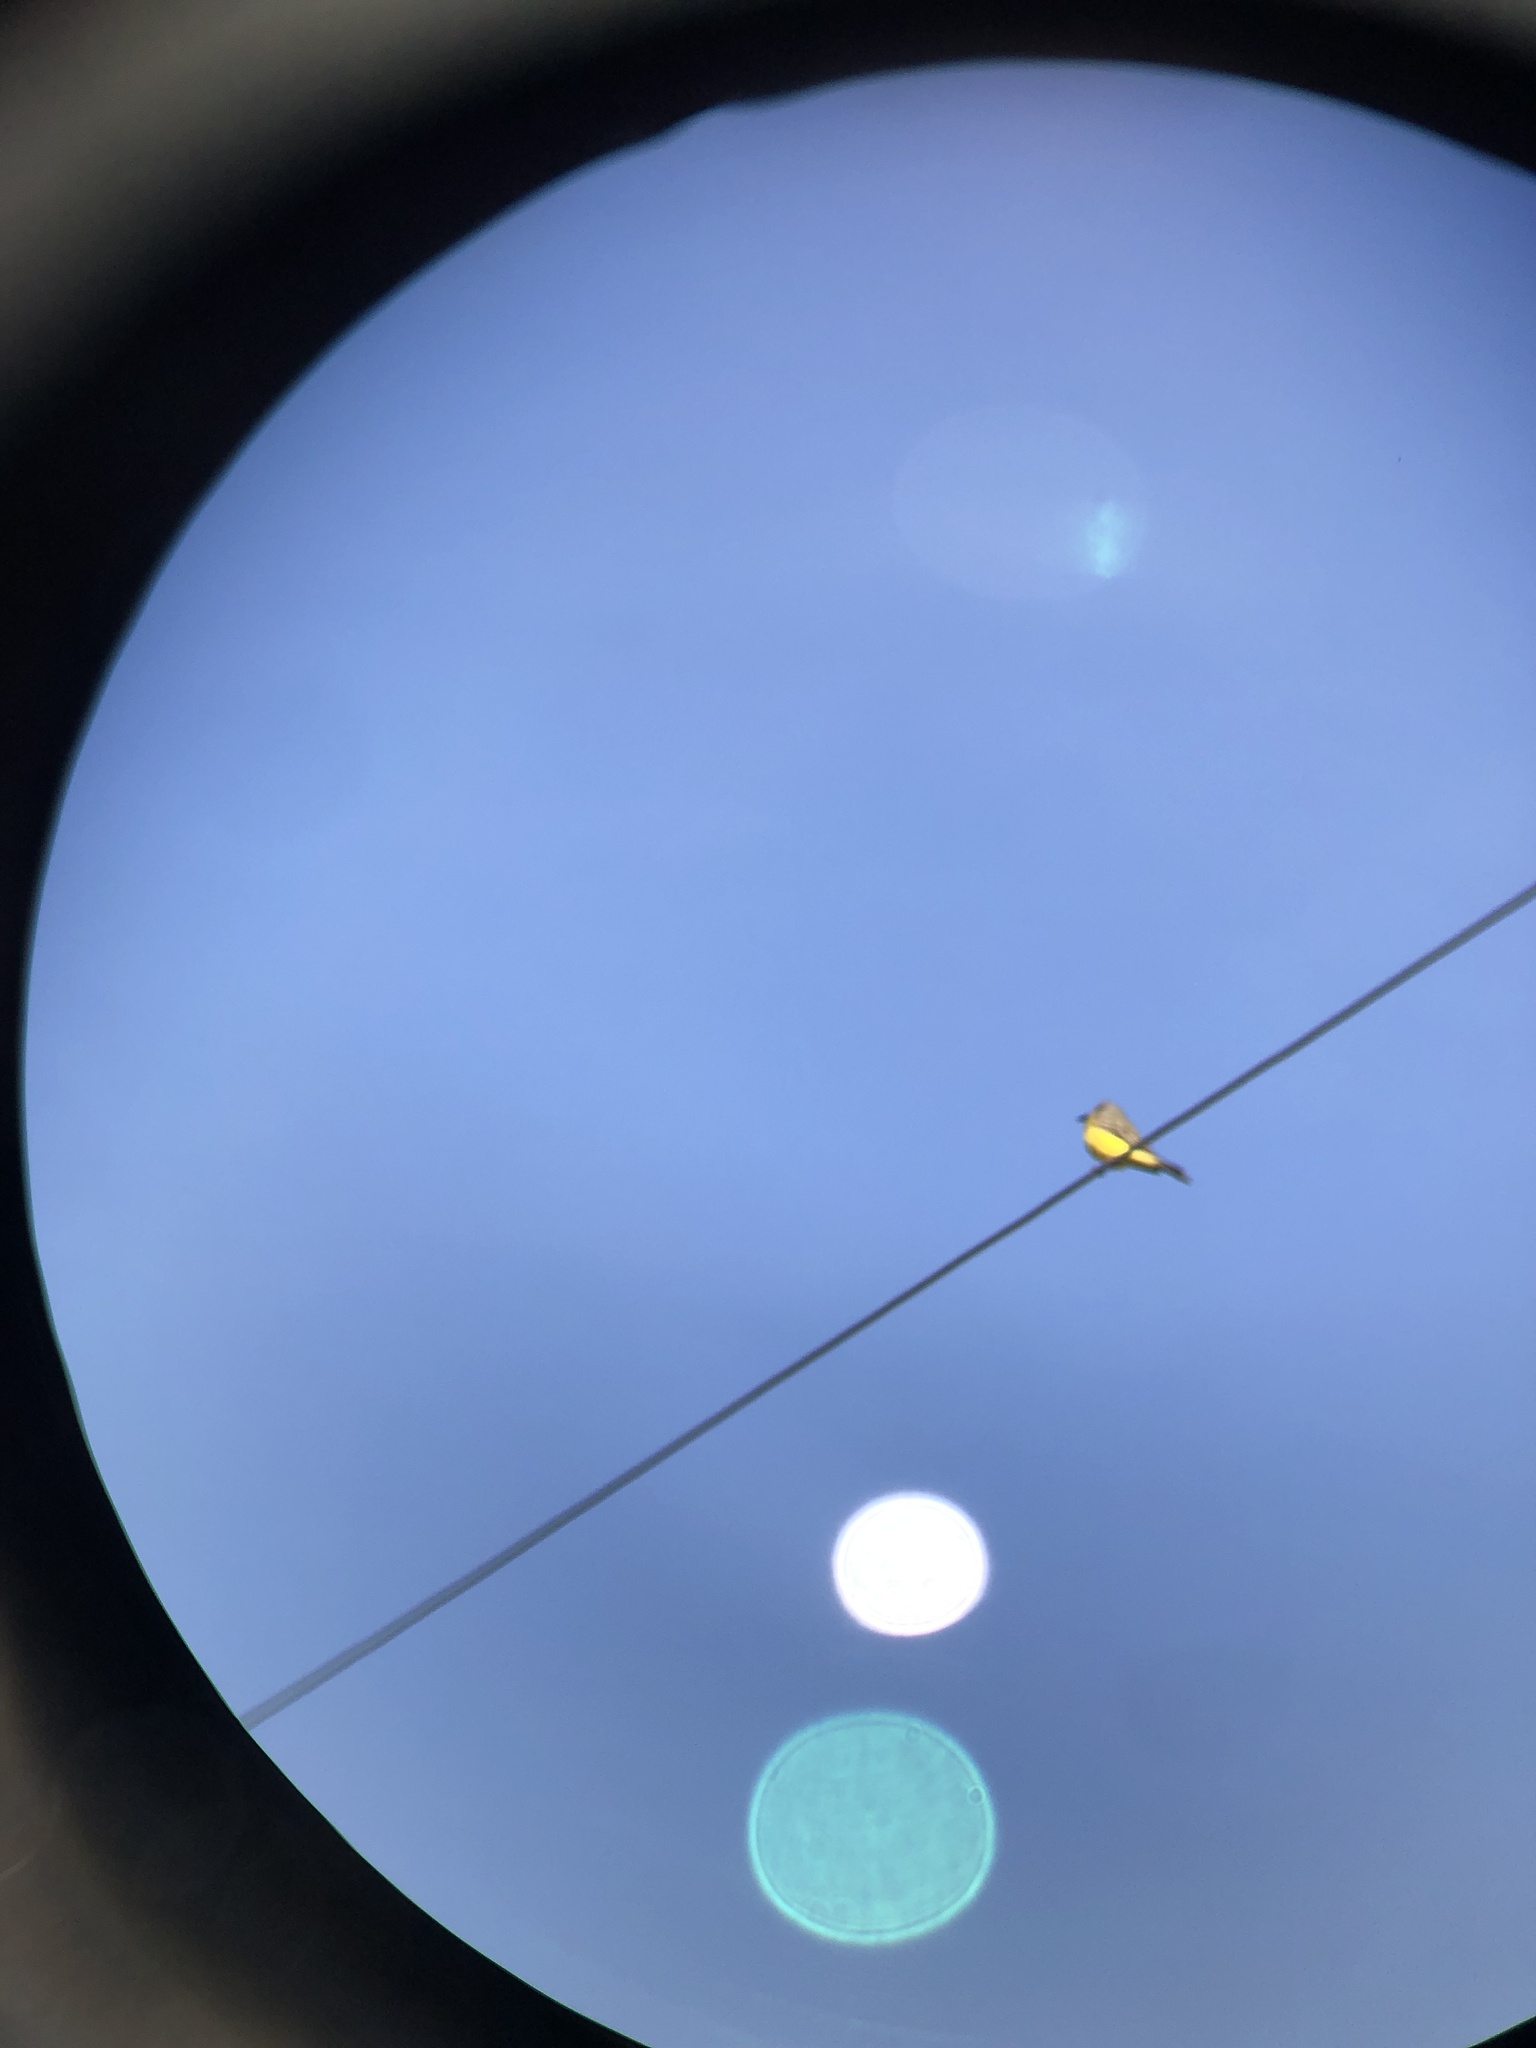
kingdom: Animalia
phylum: Chordata
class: Aves
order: Passeriformes
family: Tyrannidae
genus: Tyrannus
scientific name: Tyrannus melancholicus
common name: Tropical kingbird
